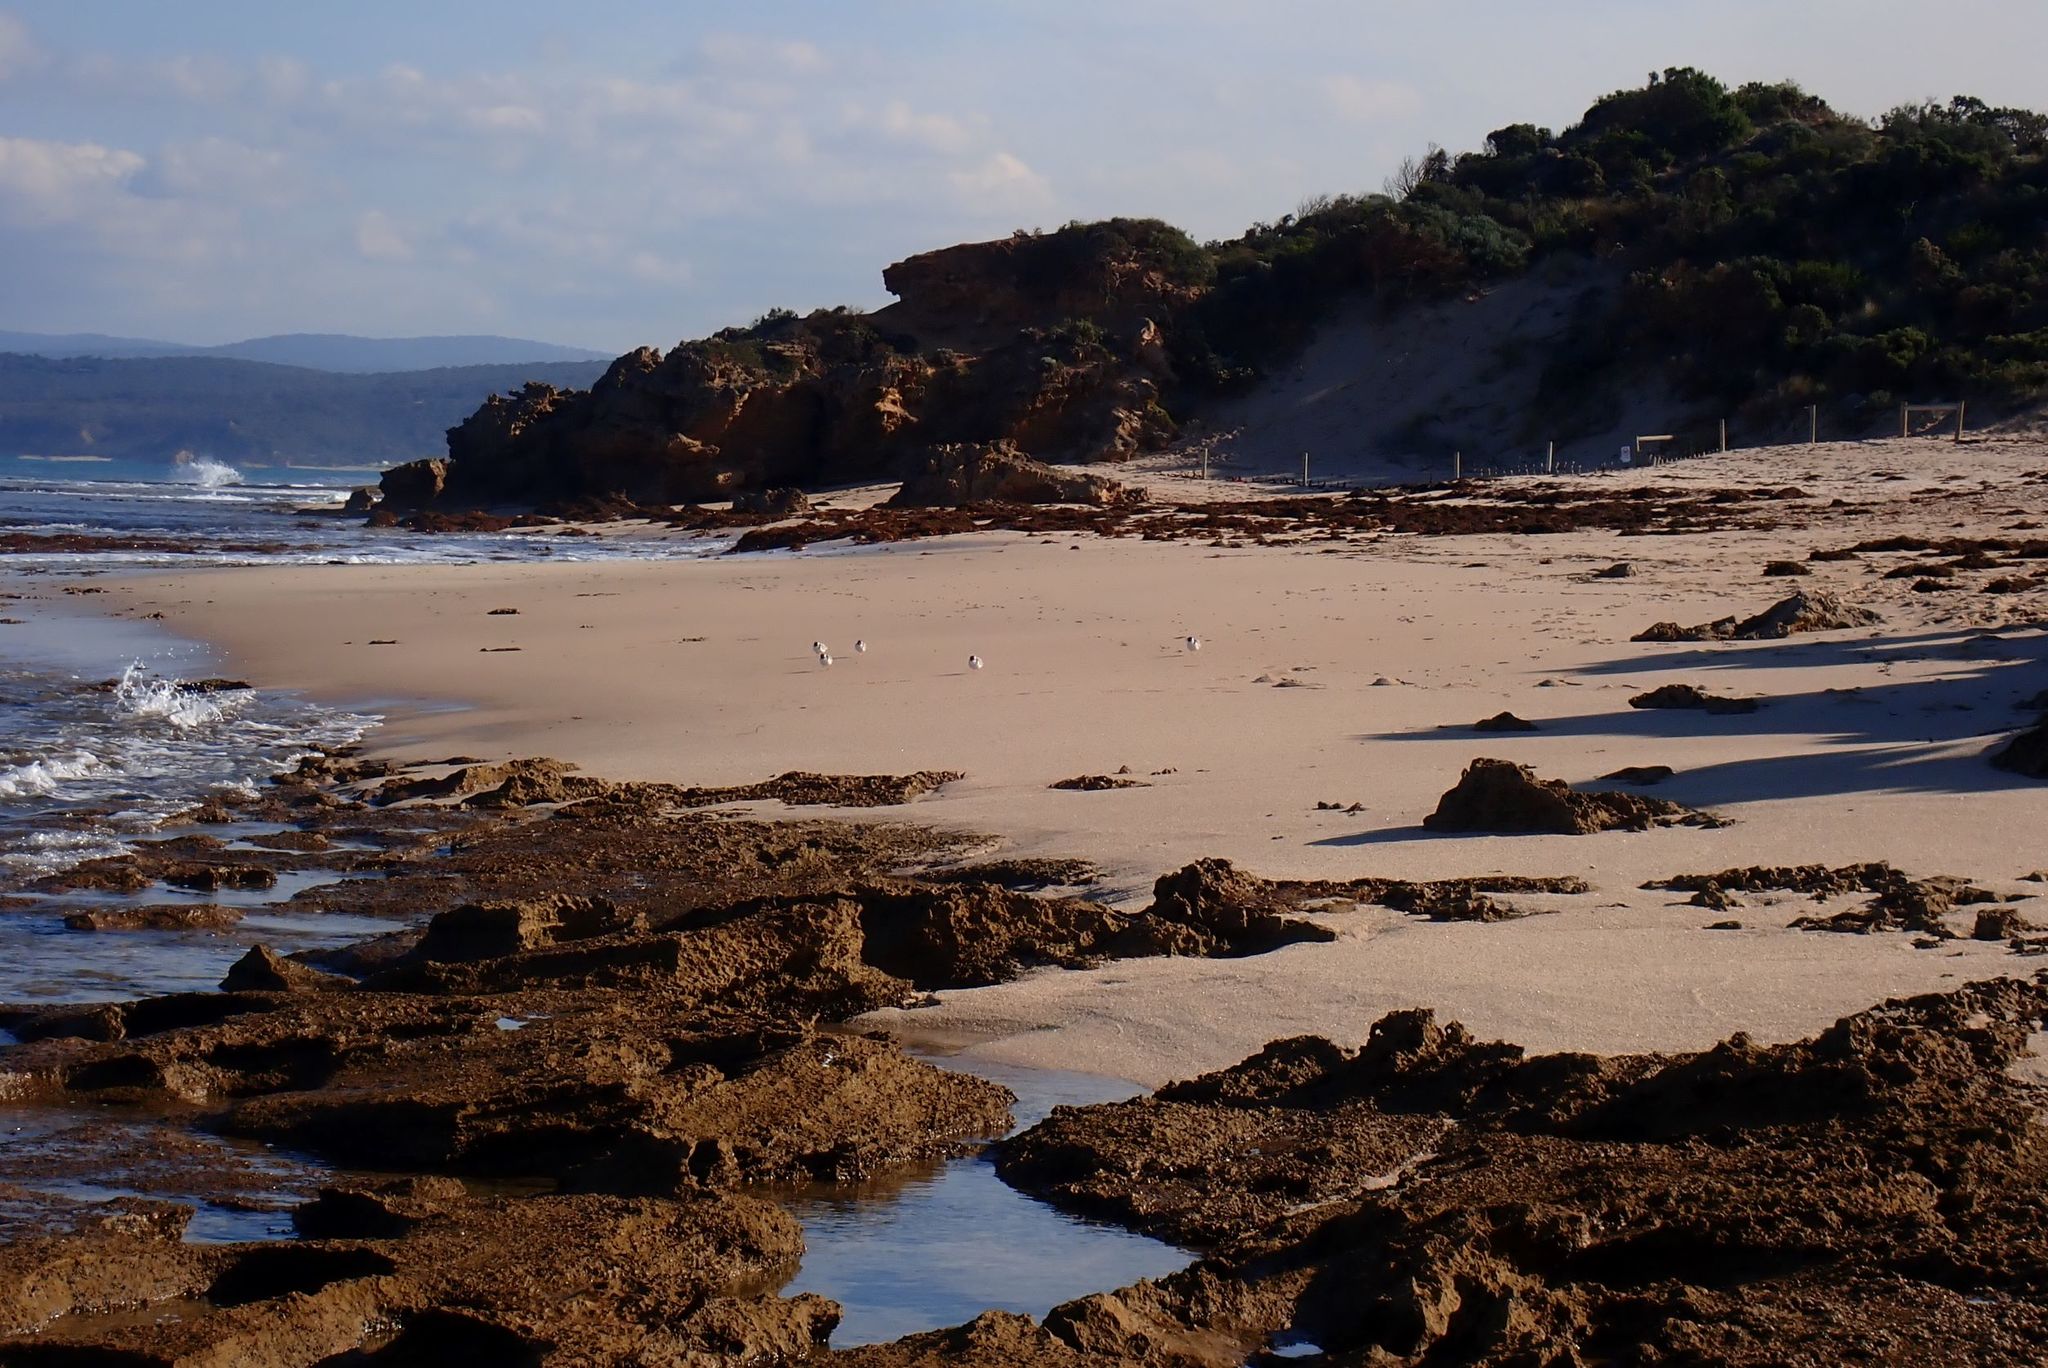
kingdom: Animalia
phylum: Chordata
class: Aves
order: Charadriiformes
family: Charadriidae
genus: Thinornis
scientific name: Thinornis cucullatus
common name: Hooded dotterel
